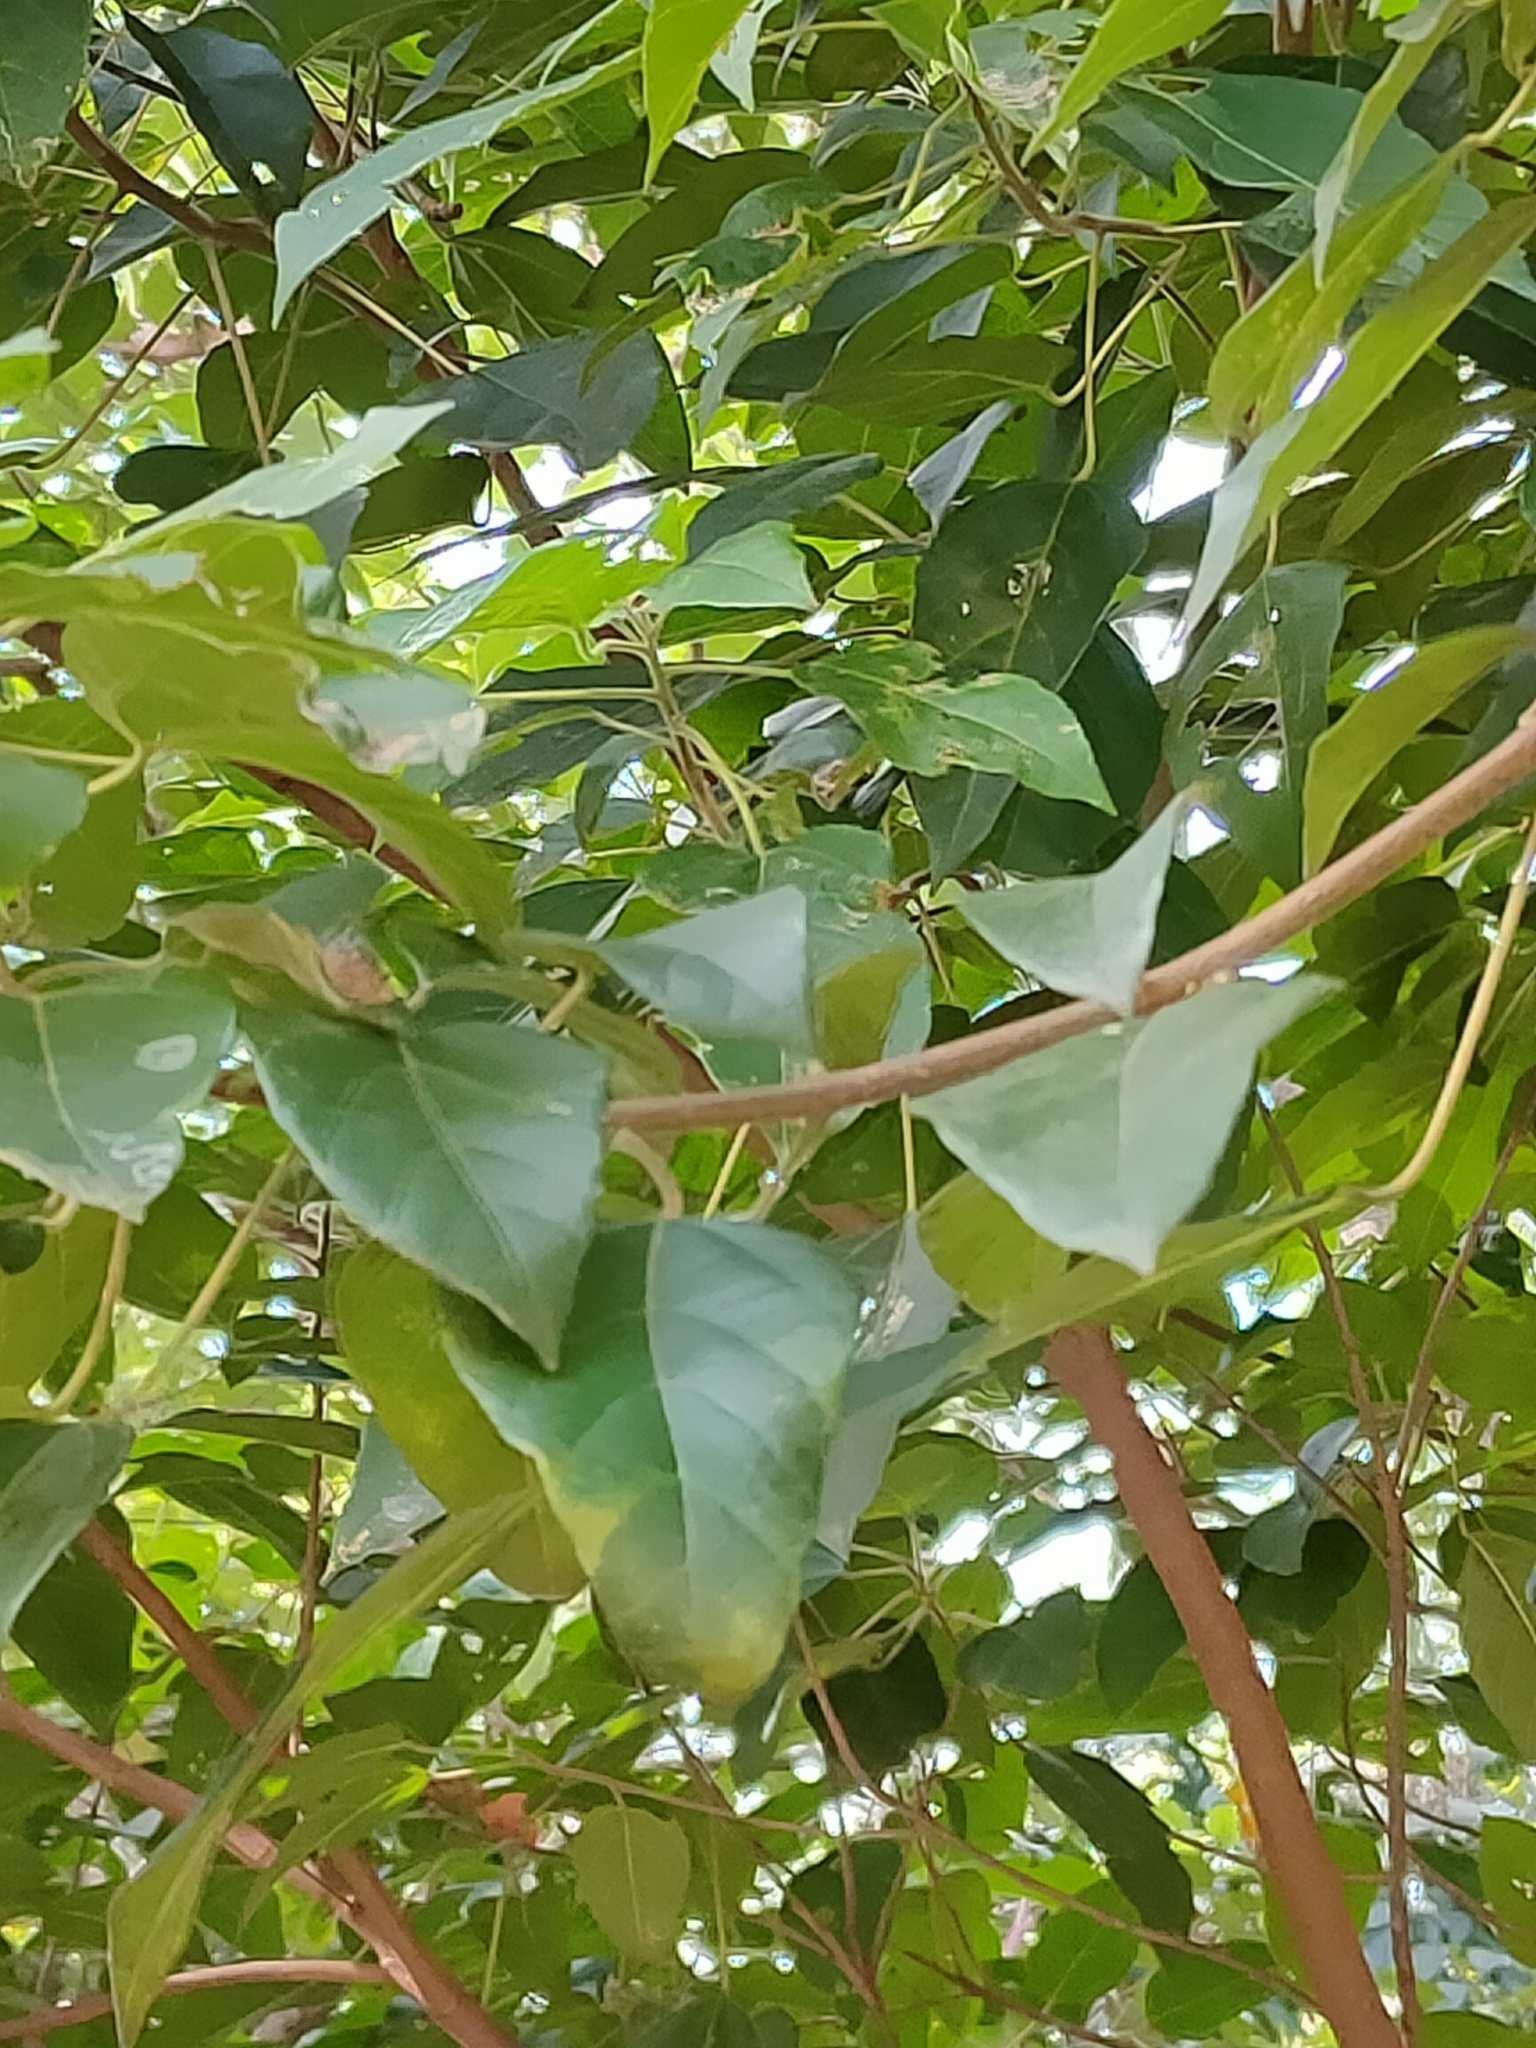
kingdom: Plantae
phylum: Tracheophyta
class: Magnoliopsida
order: Malpighiales
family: Euphorbiaceae
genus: Mallotus
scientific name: Mallotus discolor
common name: White kamala
